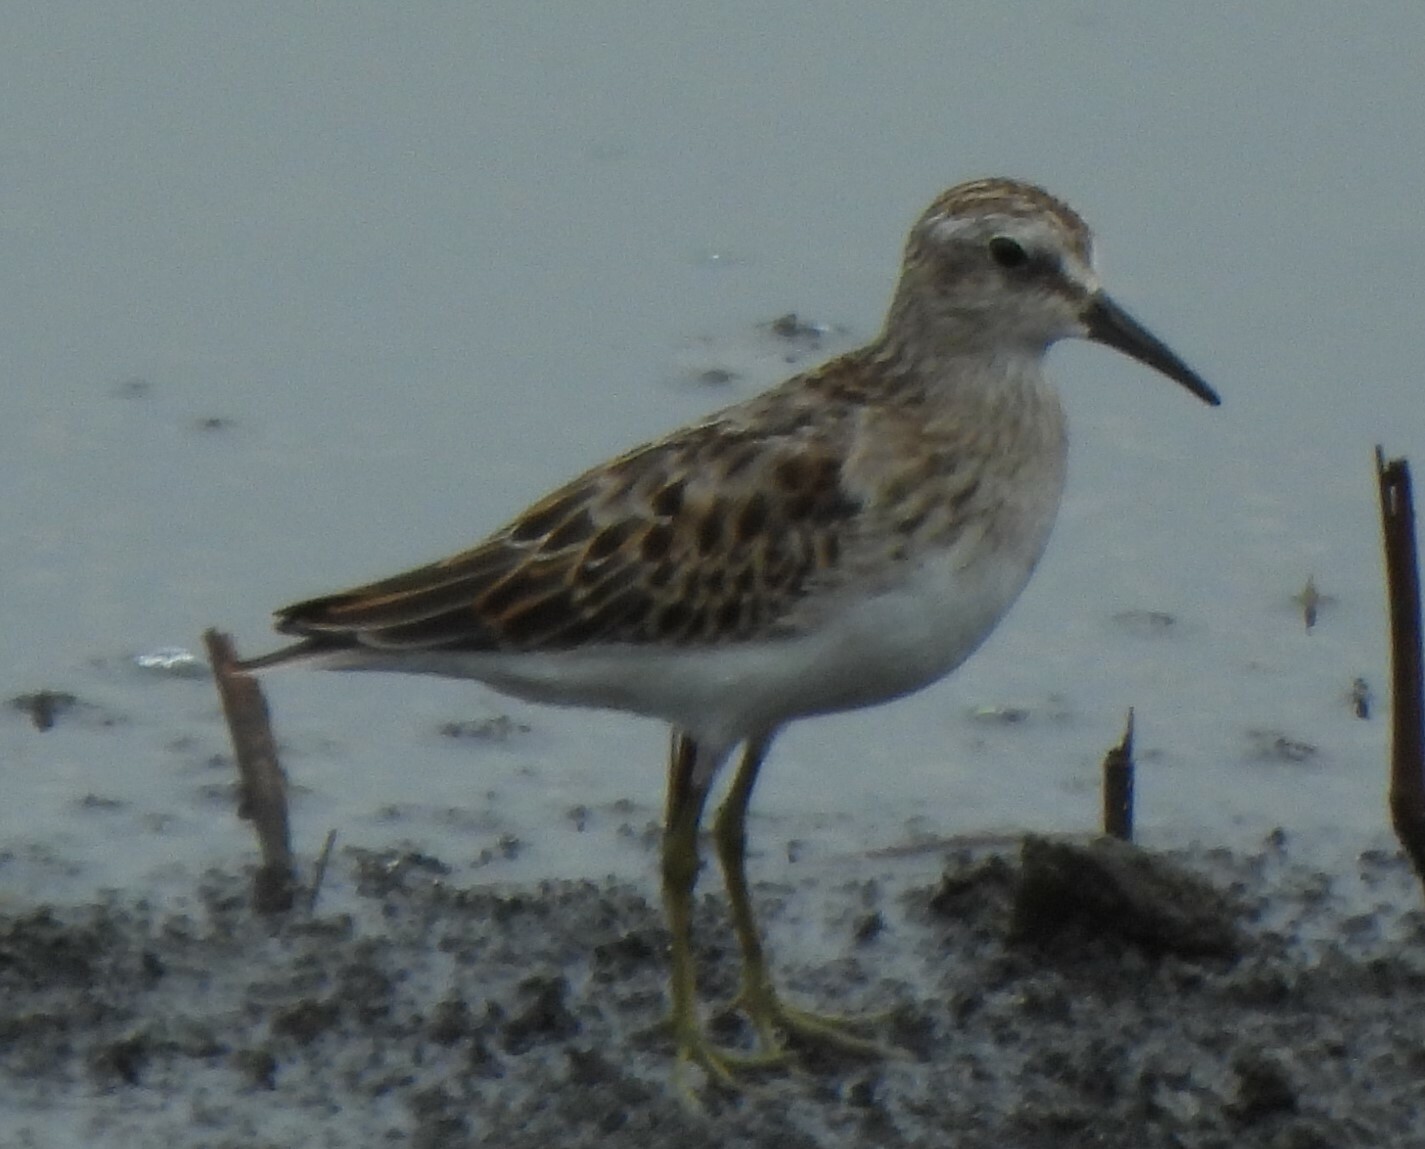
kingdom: Animalia
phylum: Chordata
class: Aves
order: Charadriiformes
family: Scolopacidae
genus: Calidris
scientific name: Calidris minutilla
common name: Least sandpiper
